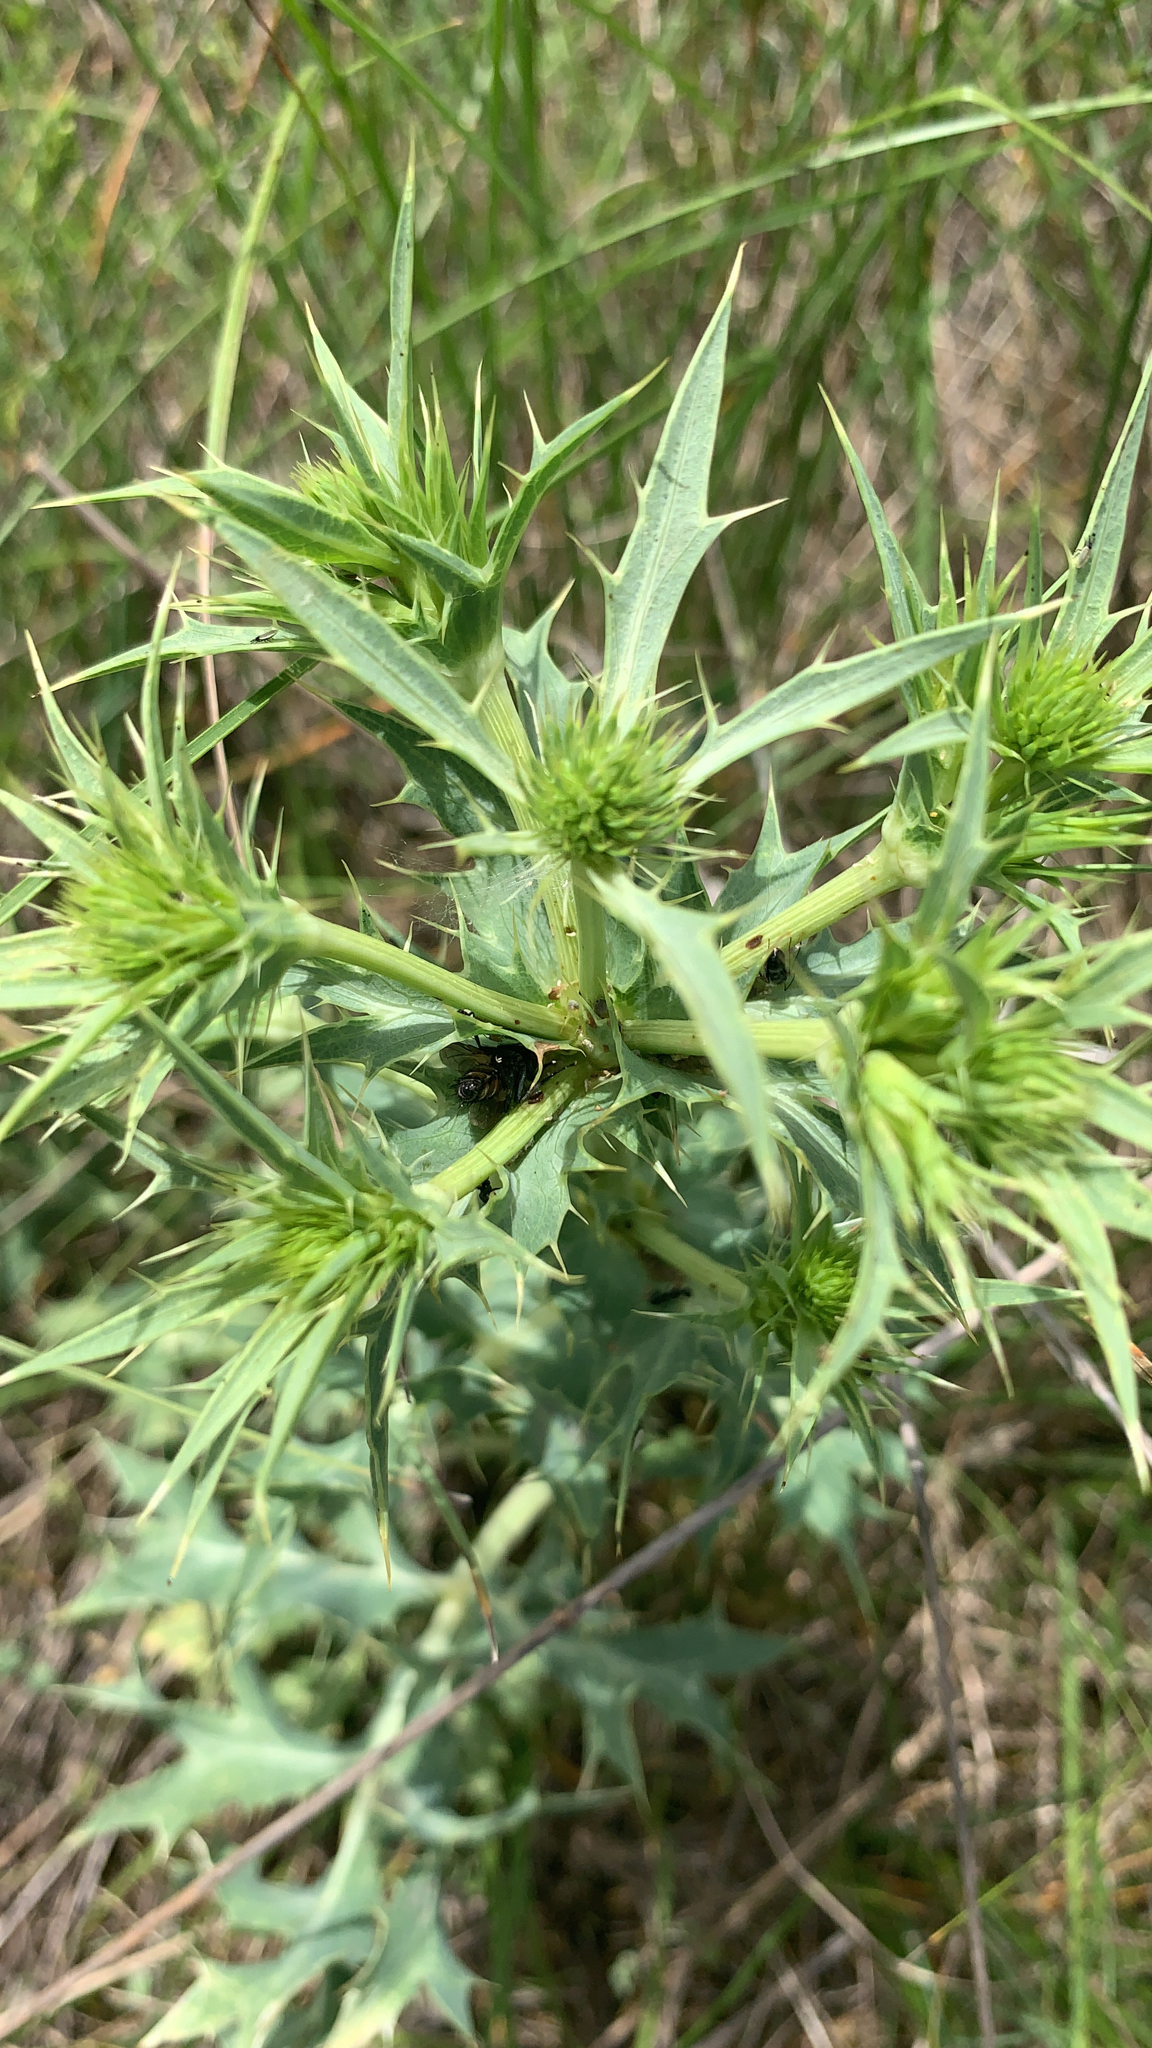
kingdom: Plantae
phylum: Tracheophyta
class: Magnoliopsida
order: Apiales
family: Apiaceae
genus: Eryngium
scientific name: Eryngium campestre
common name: Field eryngo
